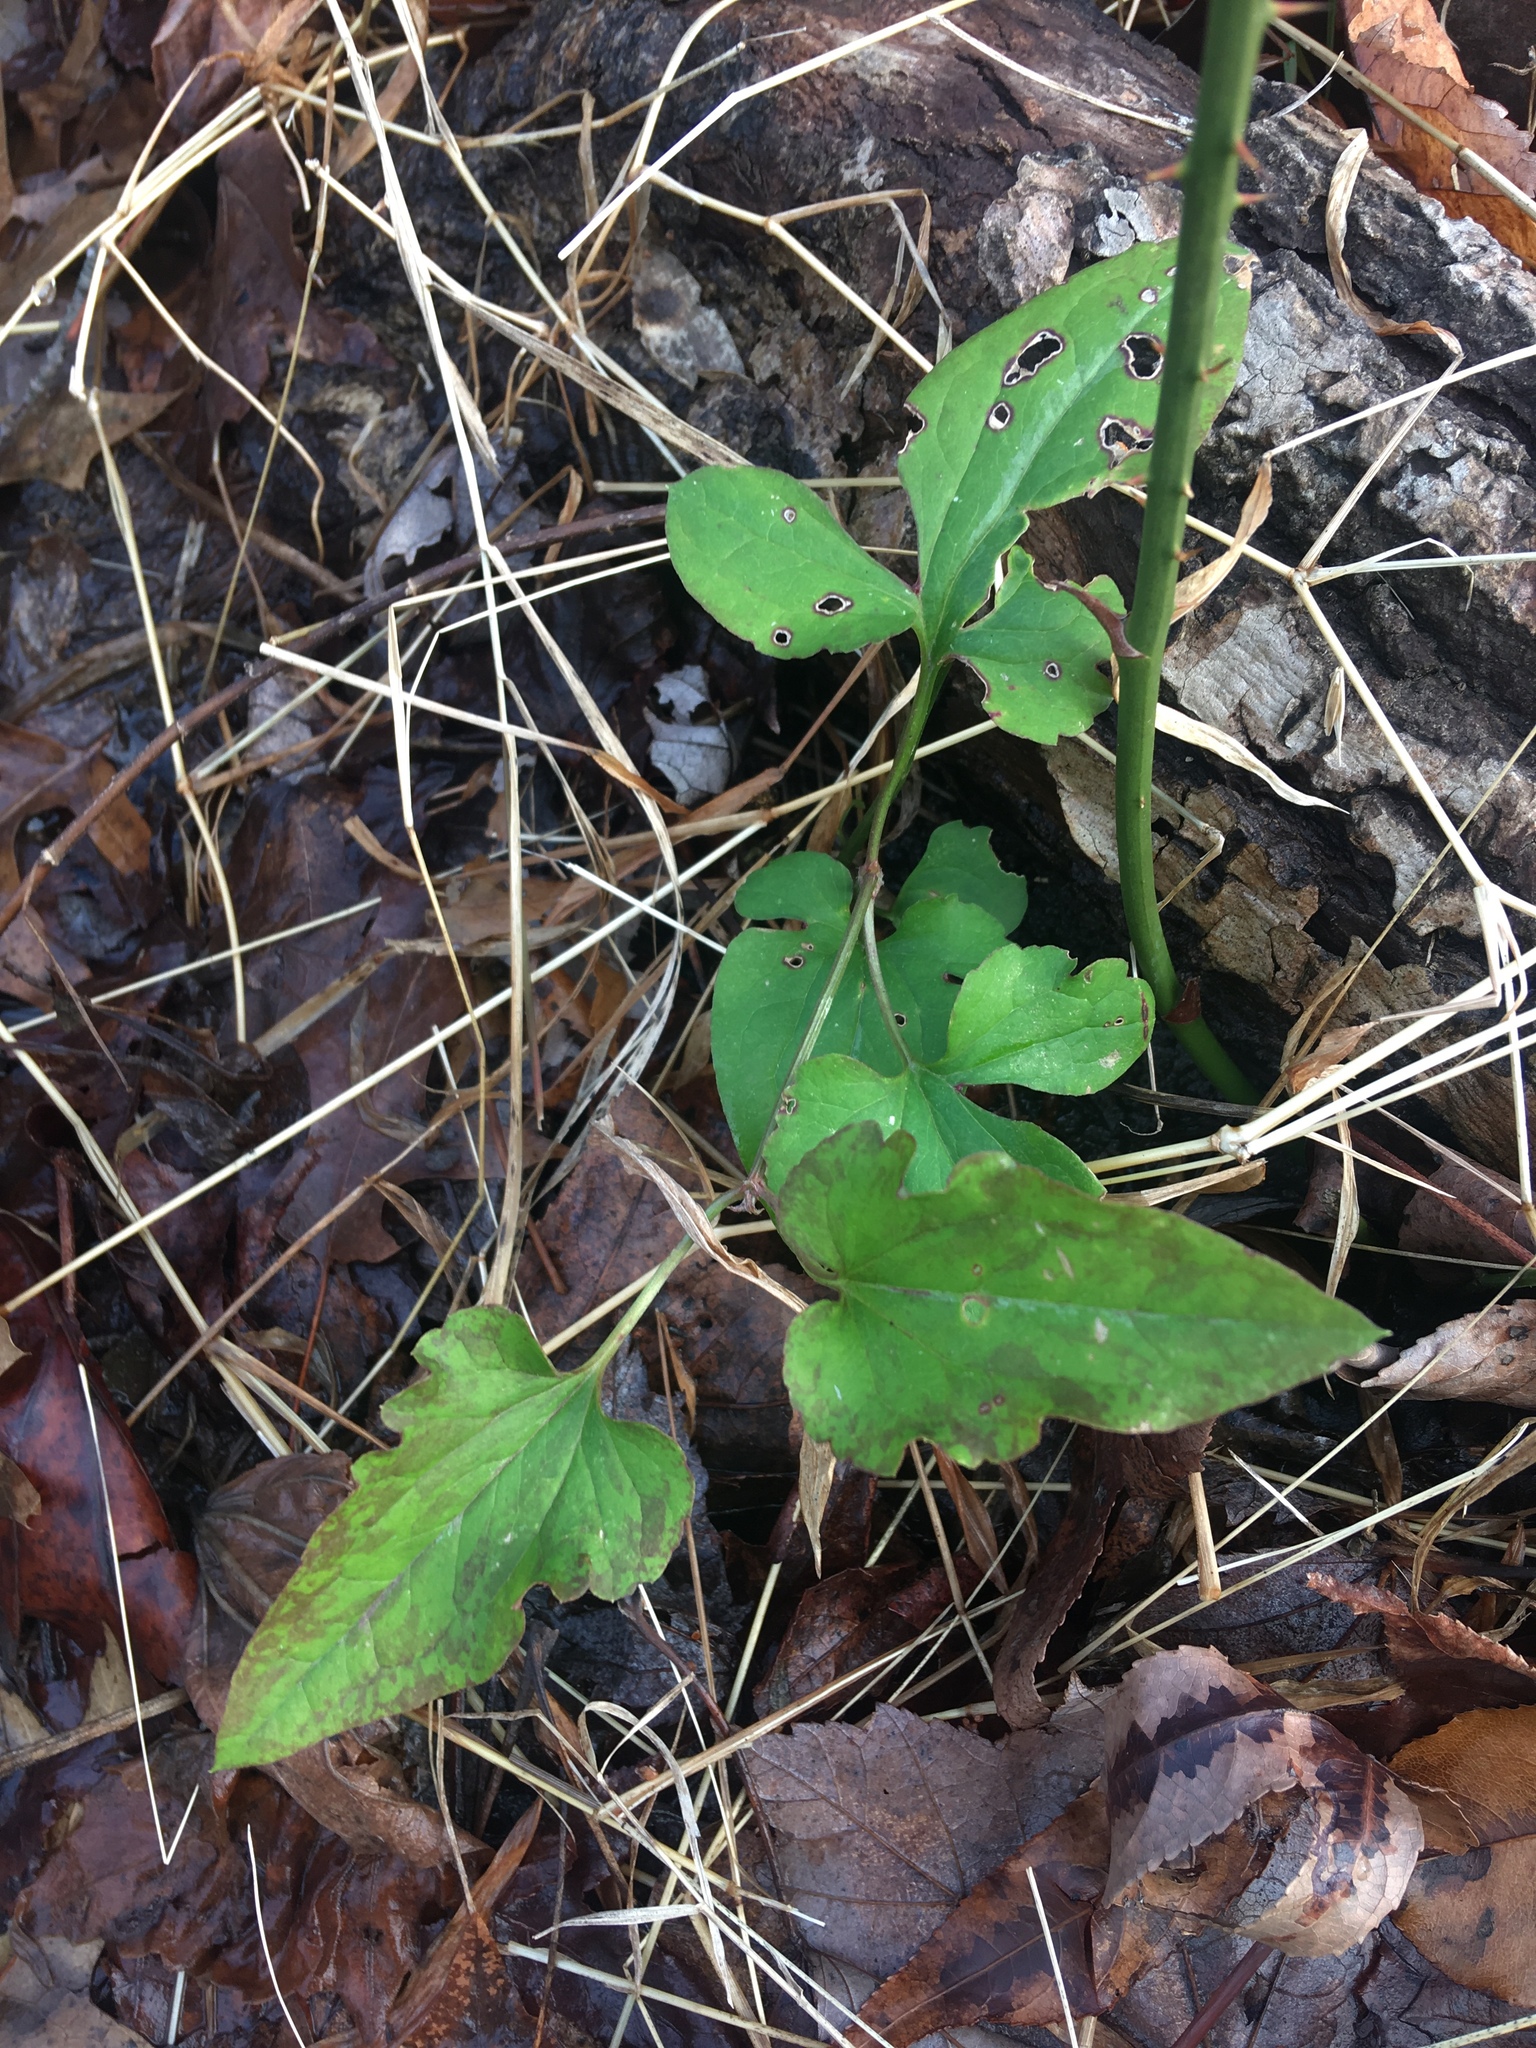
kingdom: Plantae
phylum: Tracheophyta
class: Magnoliopsida
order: Ranunculales
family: Ranunculaceae
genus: Clematis
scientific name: Clematis terniflora
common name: Sweet autumn clematis
